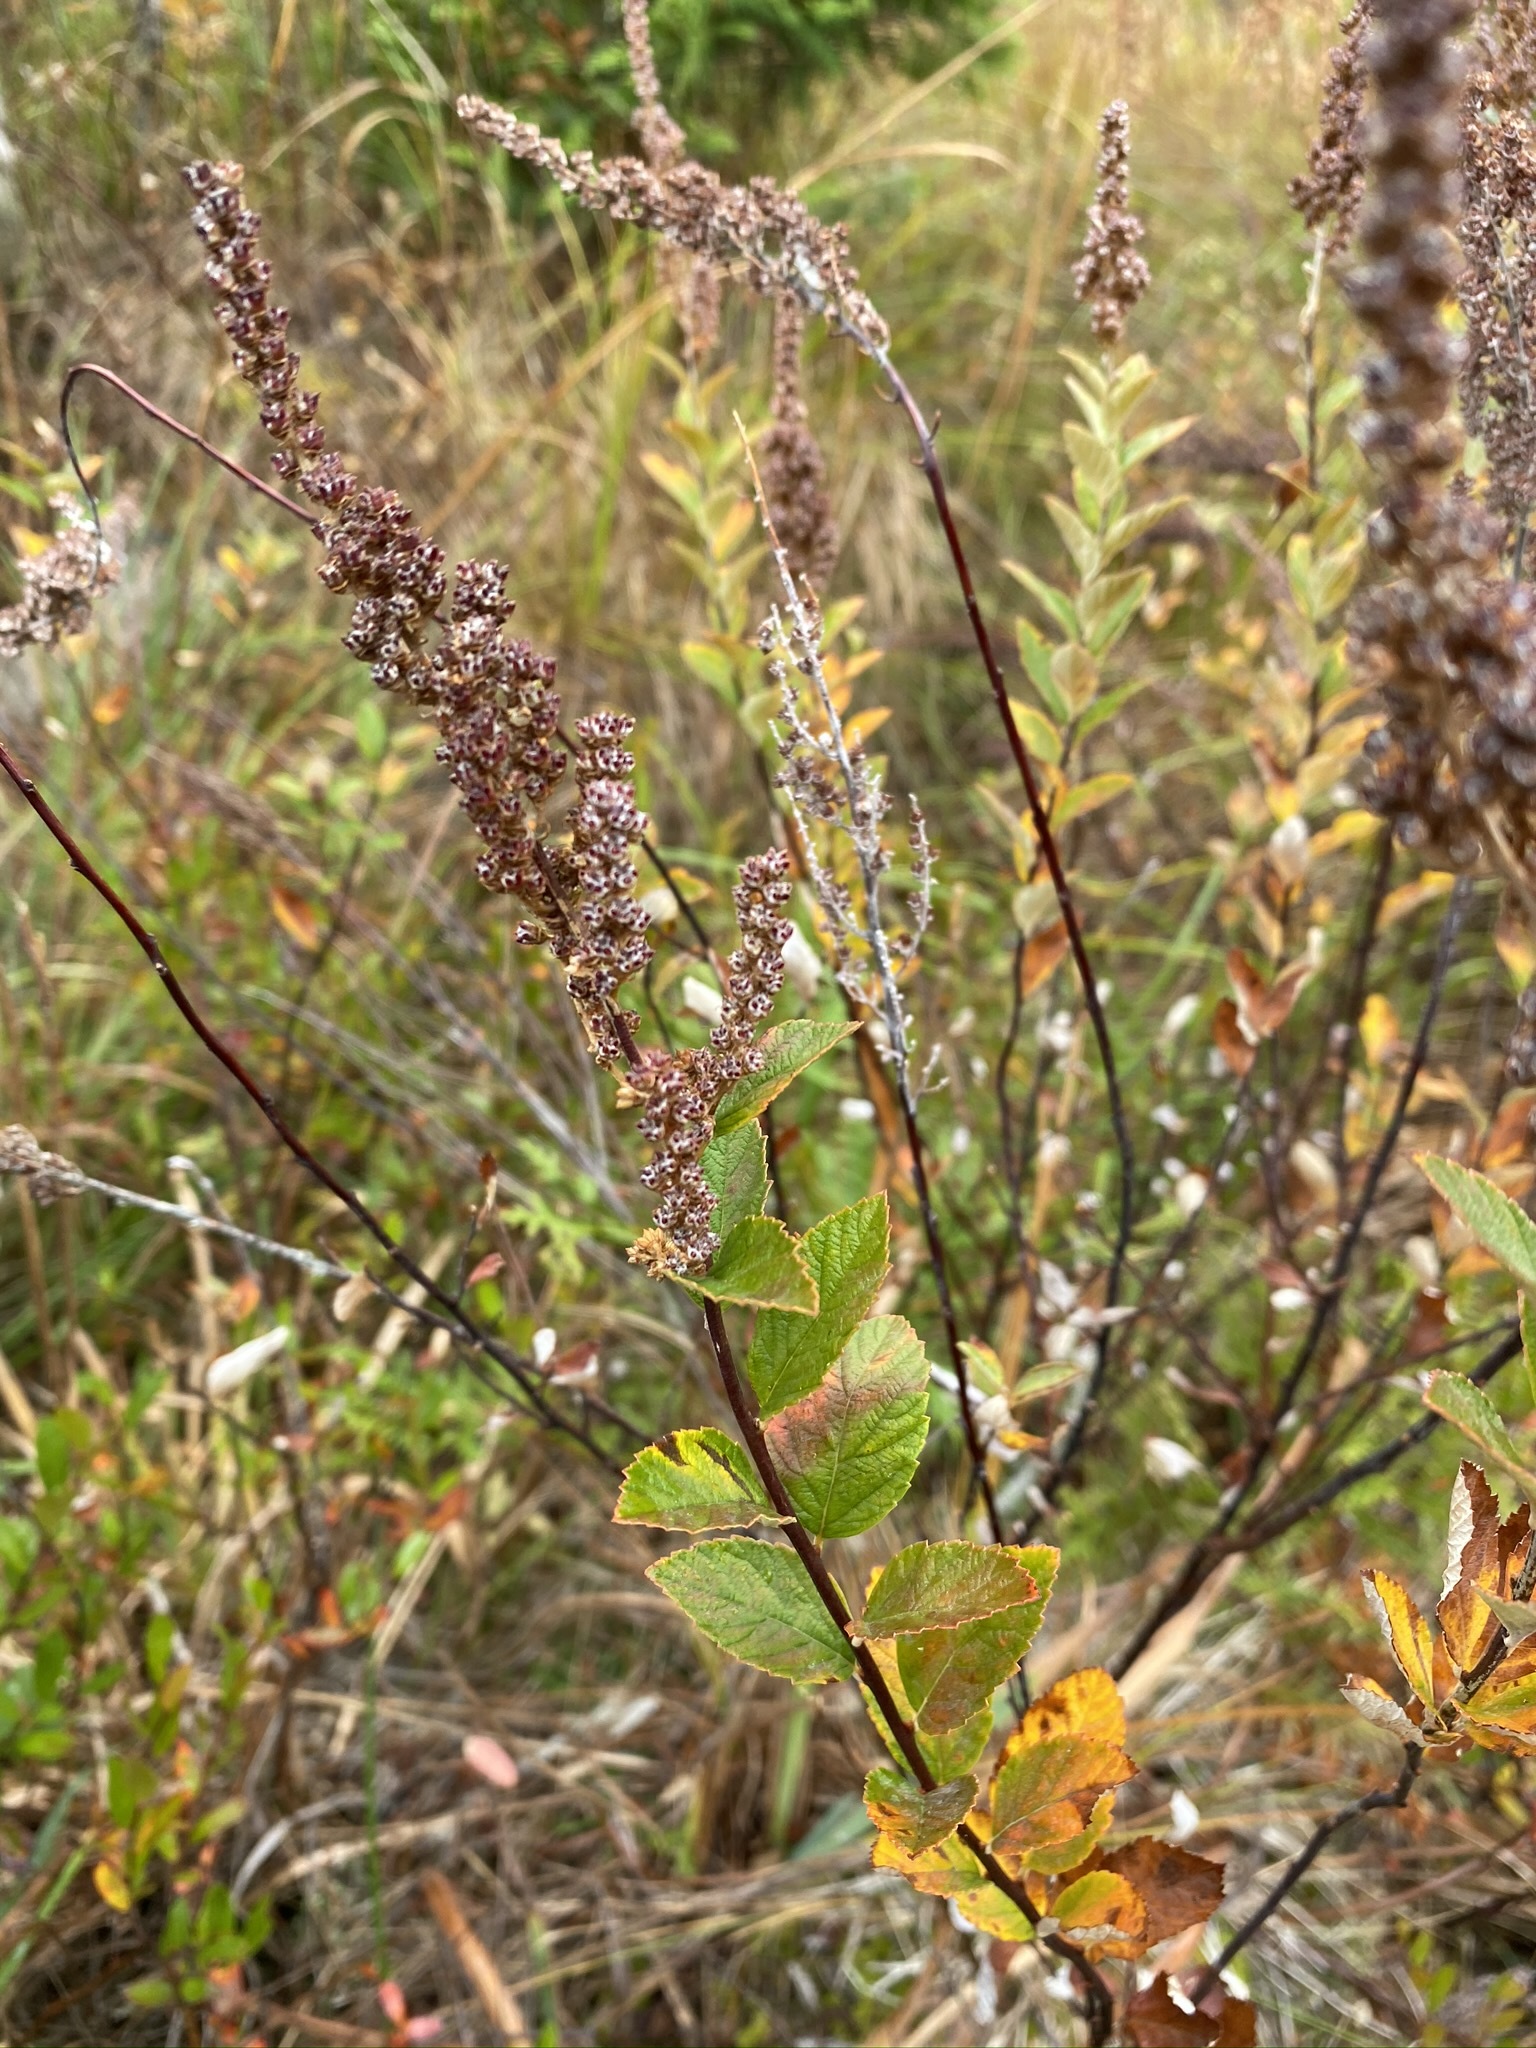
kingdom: Plantae
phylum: Tracheophyta
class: Magnoliopsida
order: Rosales
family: Rosaceae
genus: Spiraea
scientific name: Spiraea tomentosa
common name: Hardhack
